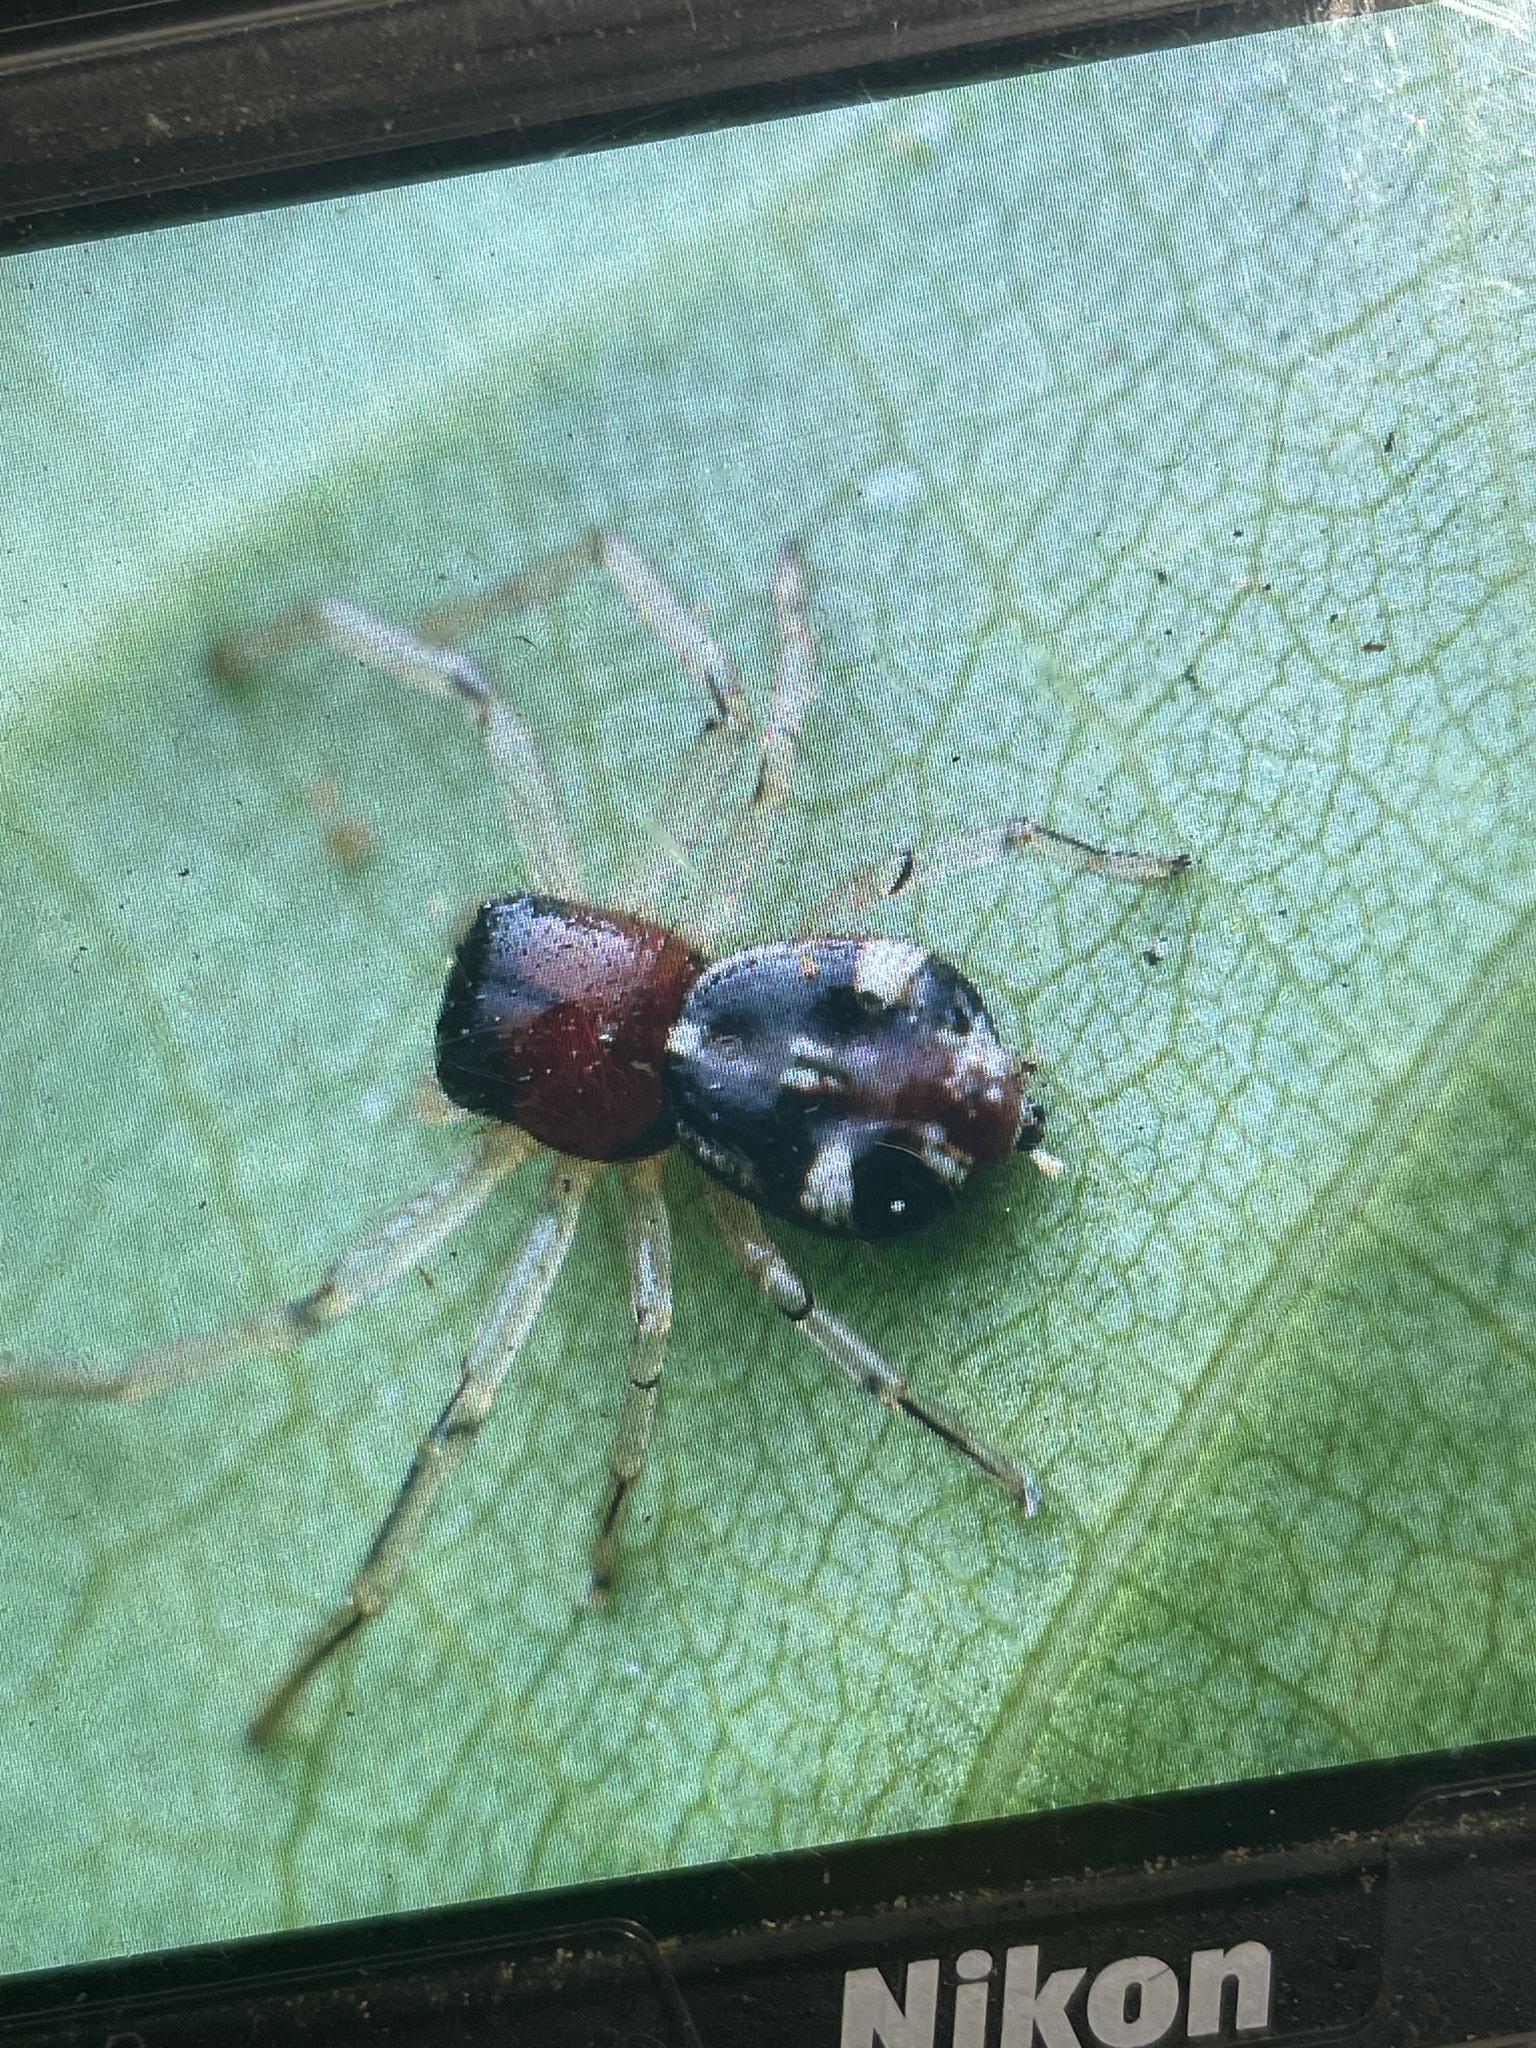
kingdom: Animalia
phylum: Arthropoda
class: Arachnida
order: Araneae
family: Thomisidae
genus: Camaricus
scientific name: Camaricus formosus
